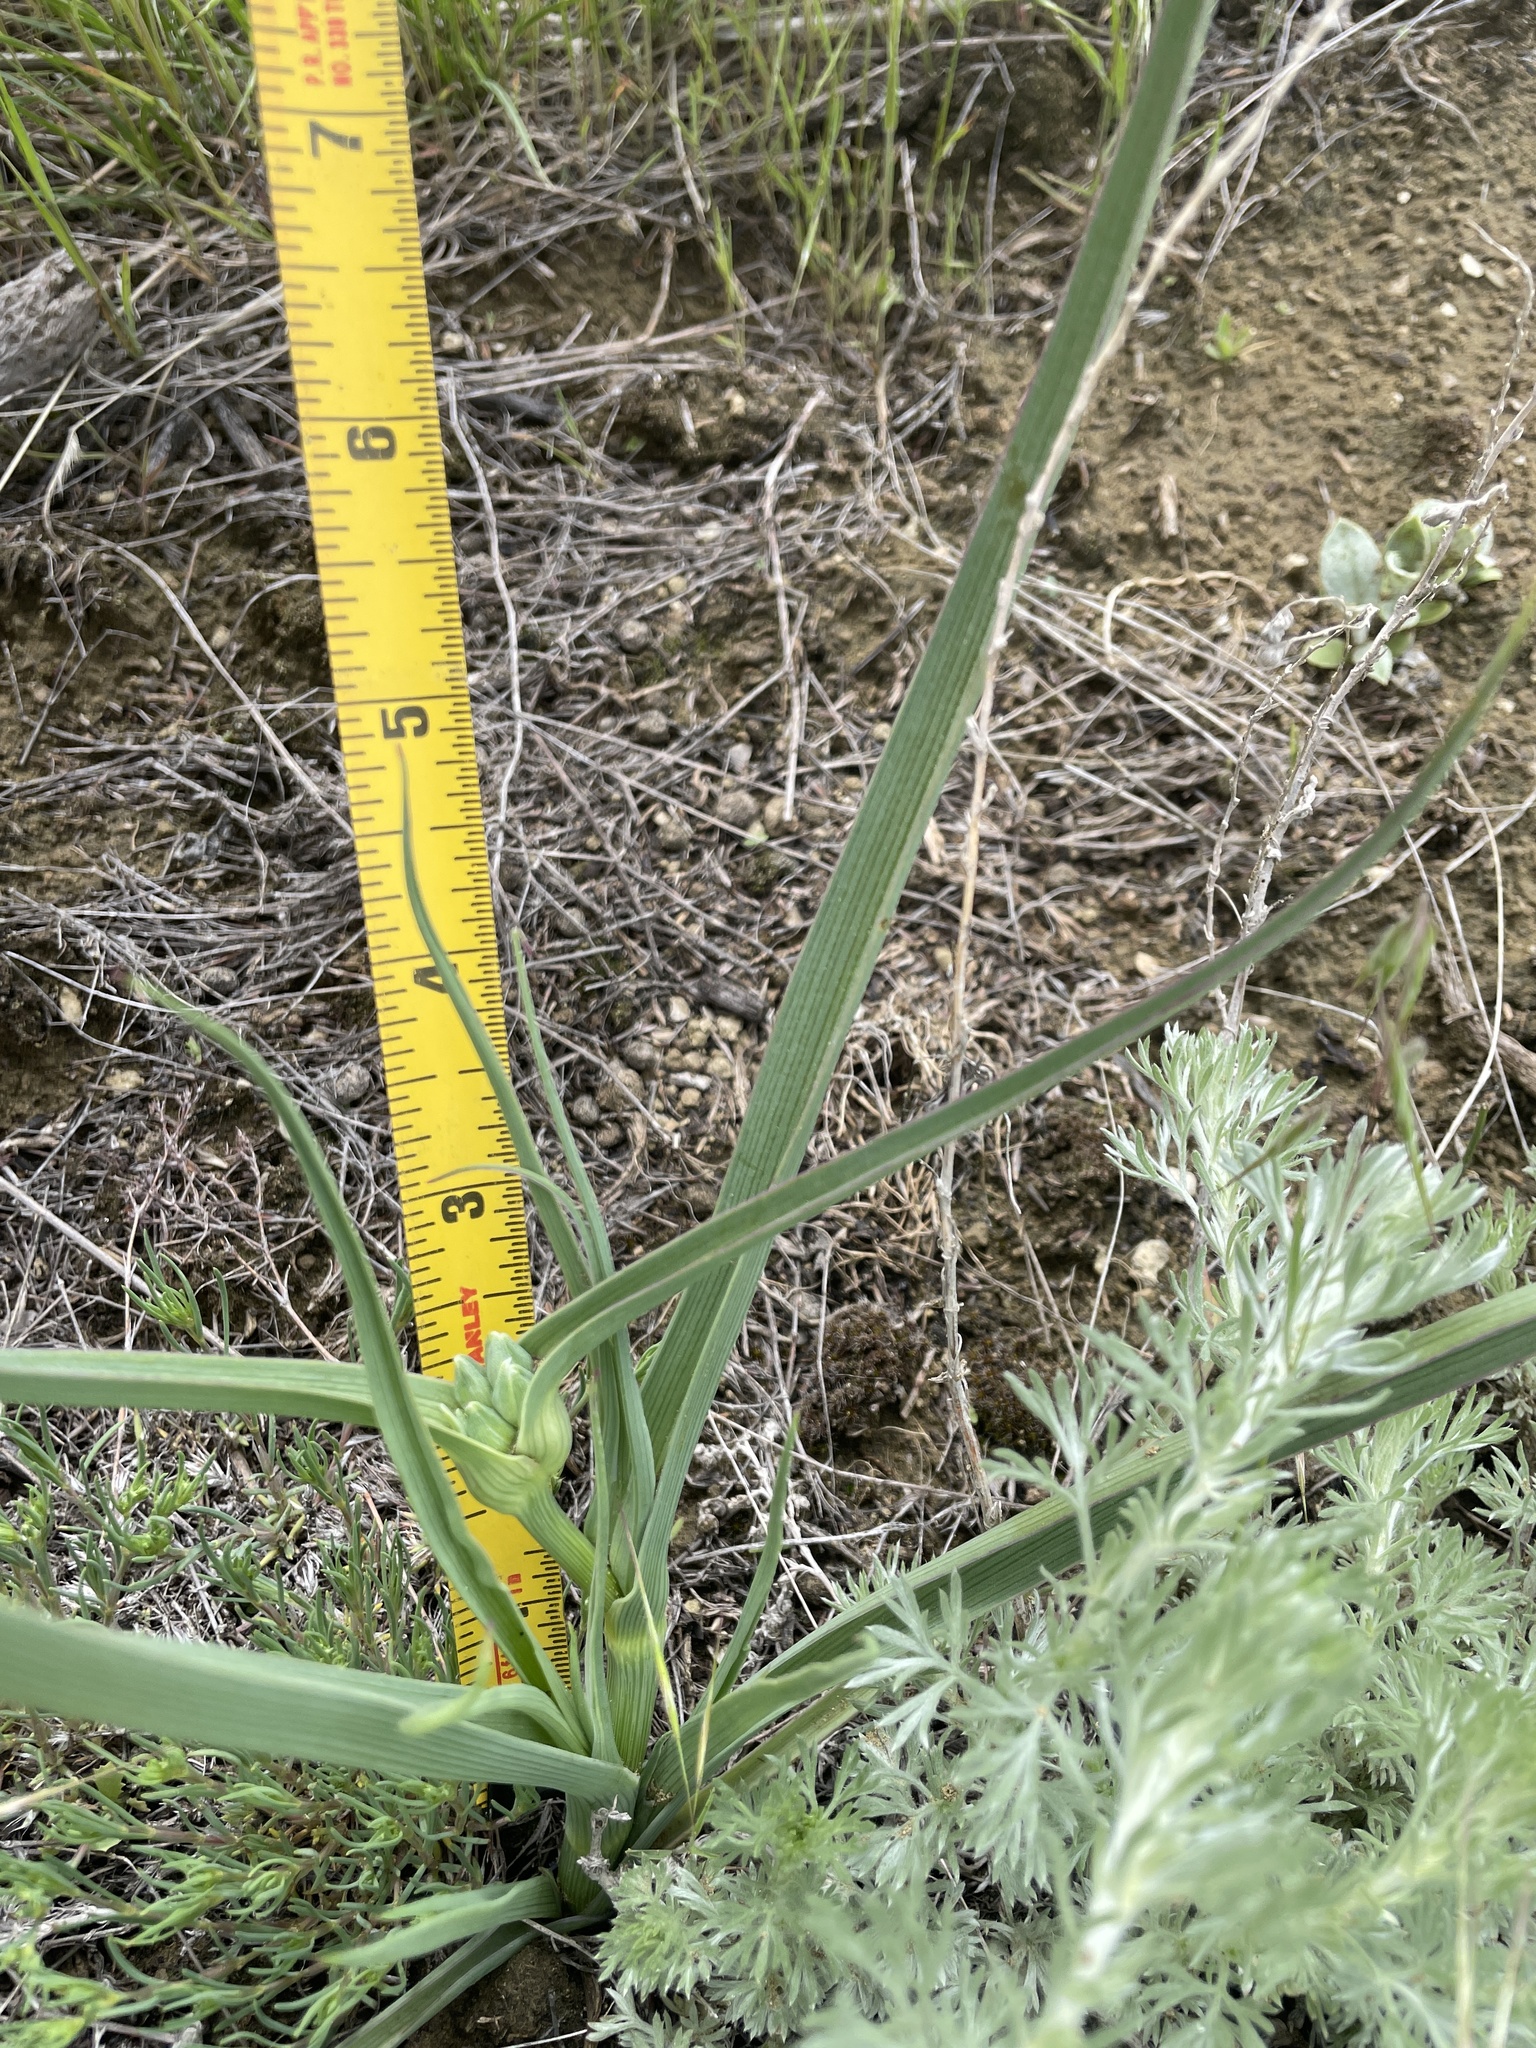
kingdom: Plantae
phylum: Tracheophyta
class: Liliopsida
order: Commelinales
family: Commelinaceae
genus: Tradescantia
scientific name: Tradescantia occidentalis
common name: Prairie spiderwort
